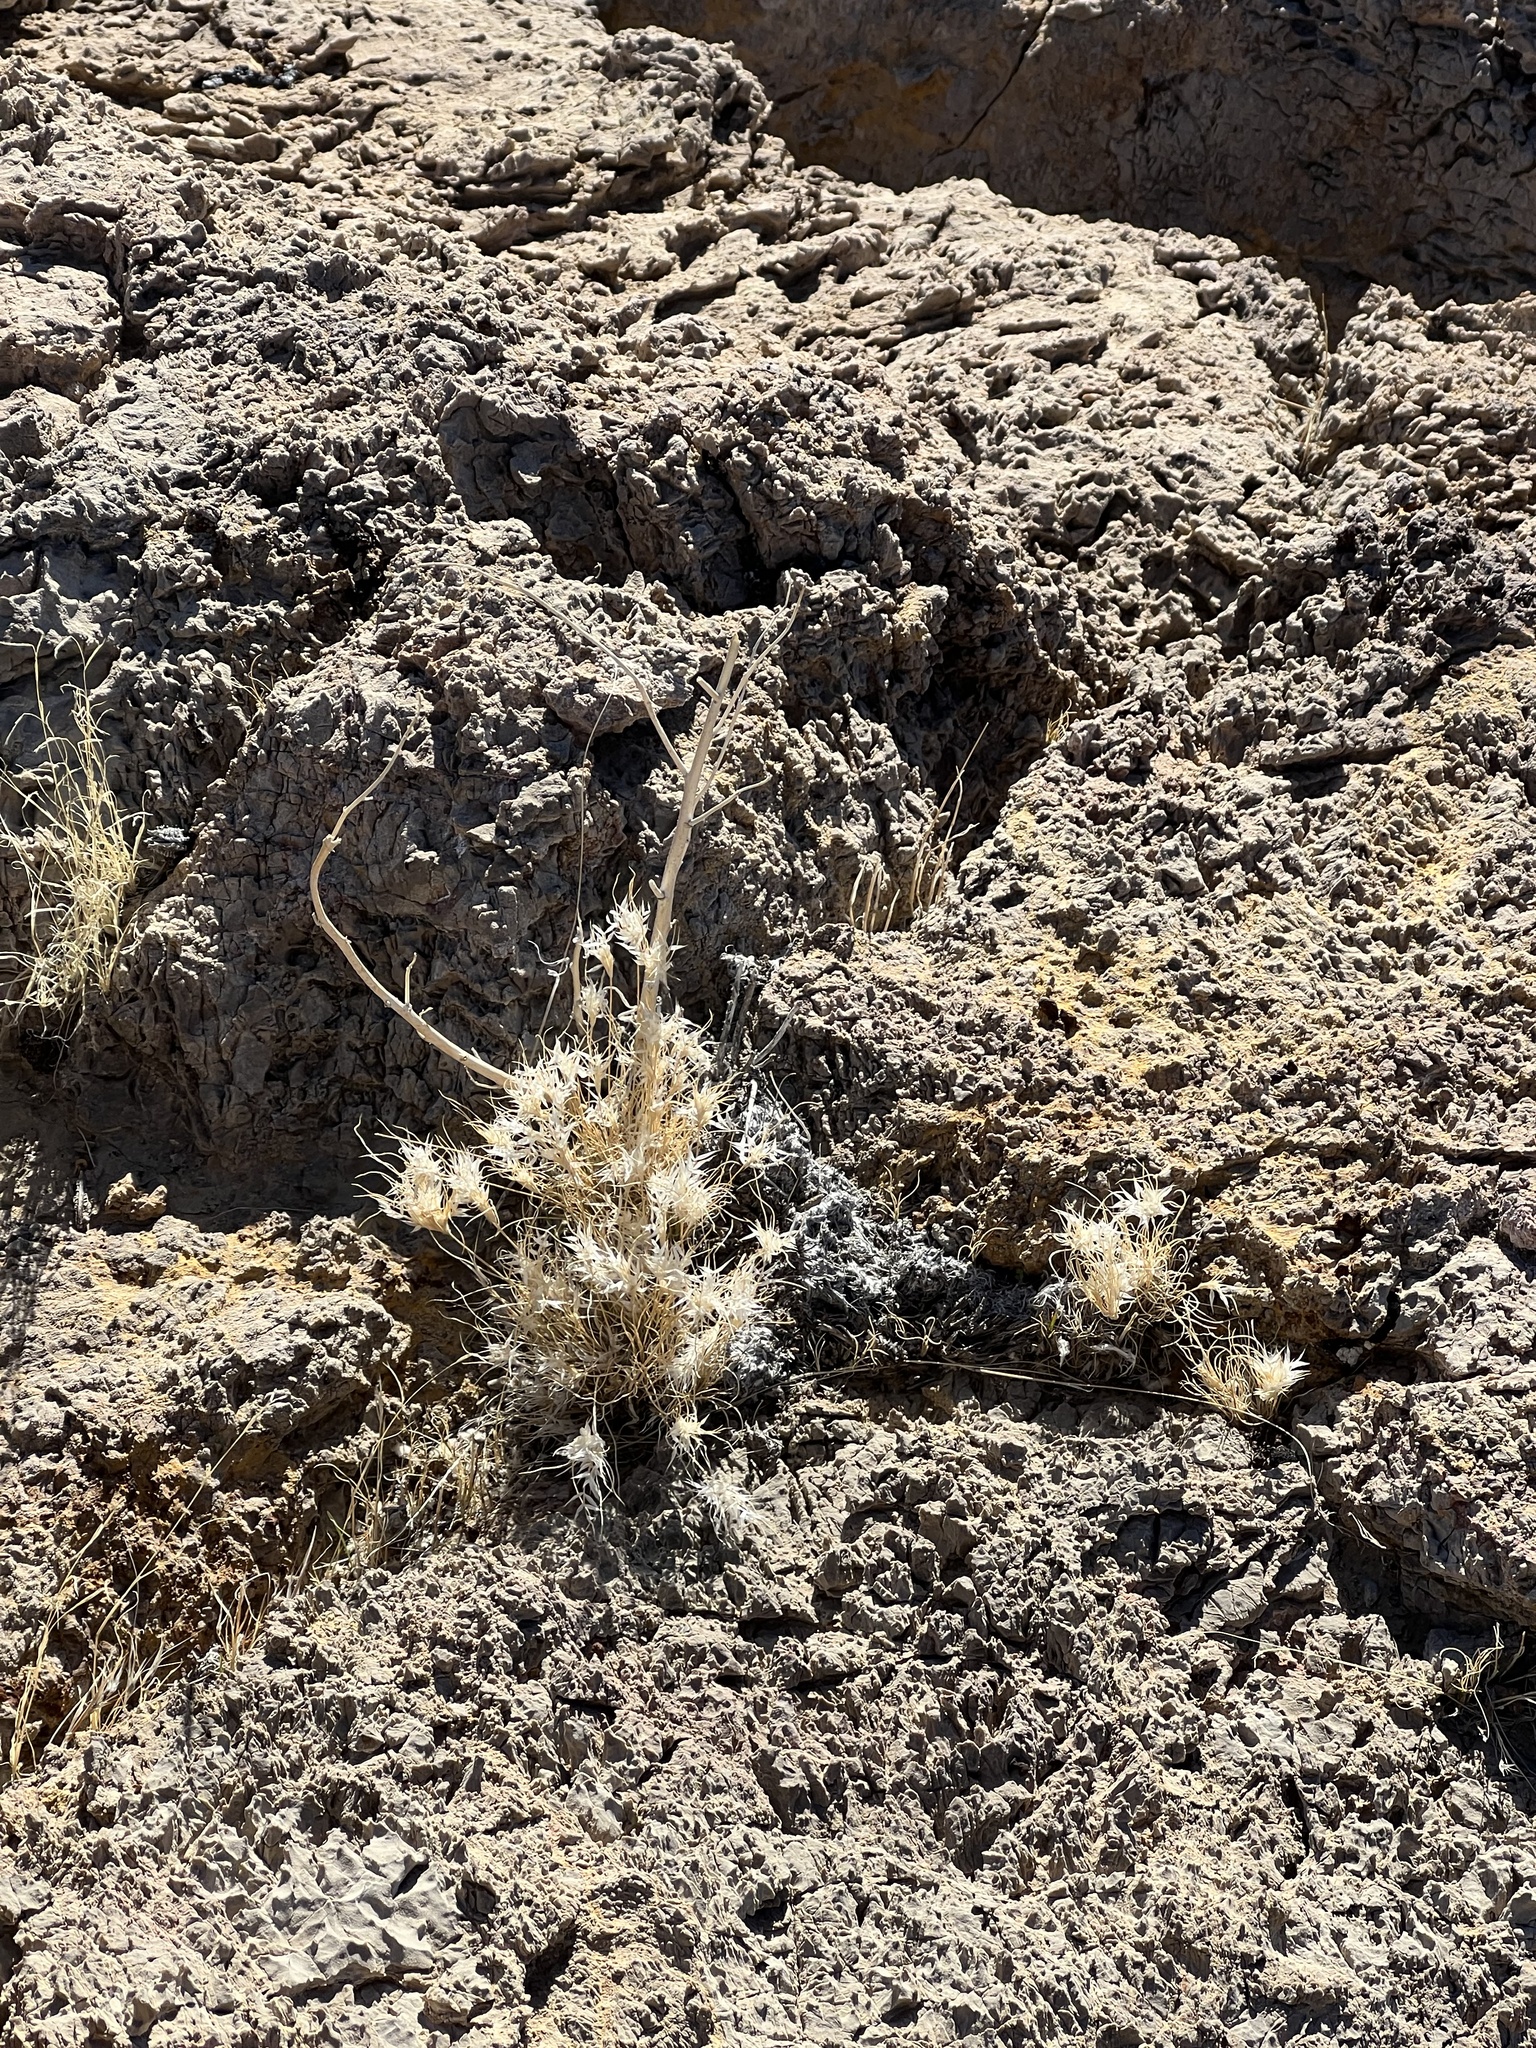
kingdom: Plantae
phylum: Tracheophyta
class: Liliopsida
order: Poales
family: Poaceae
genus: Dasyochloa
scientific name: Dasyochloa pulchella
